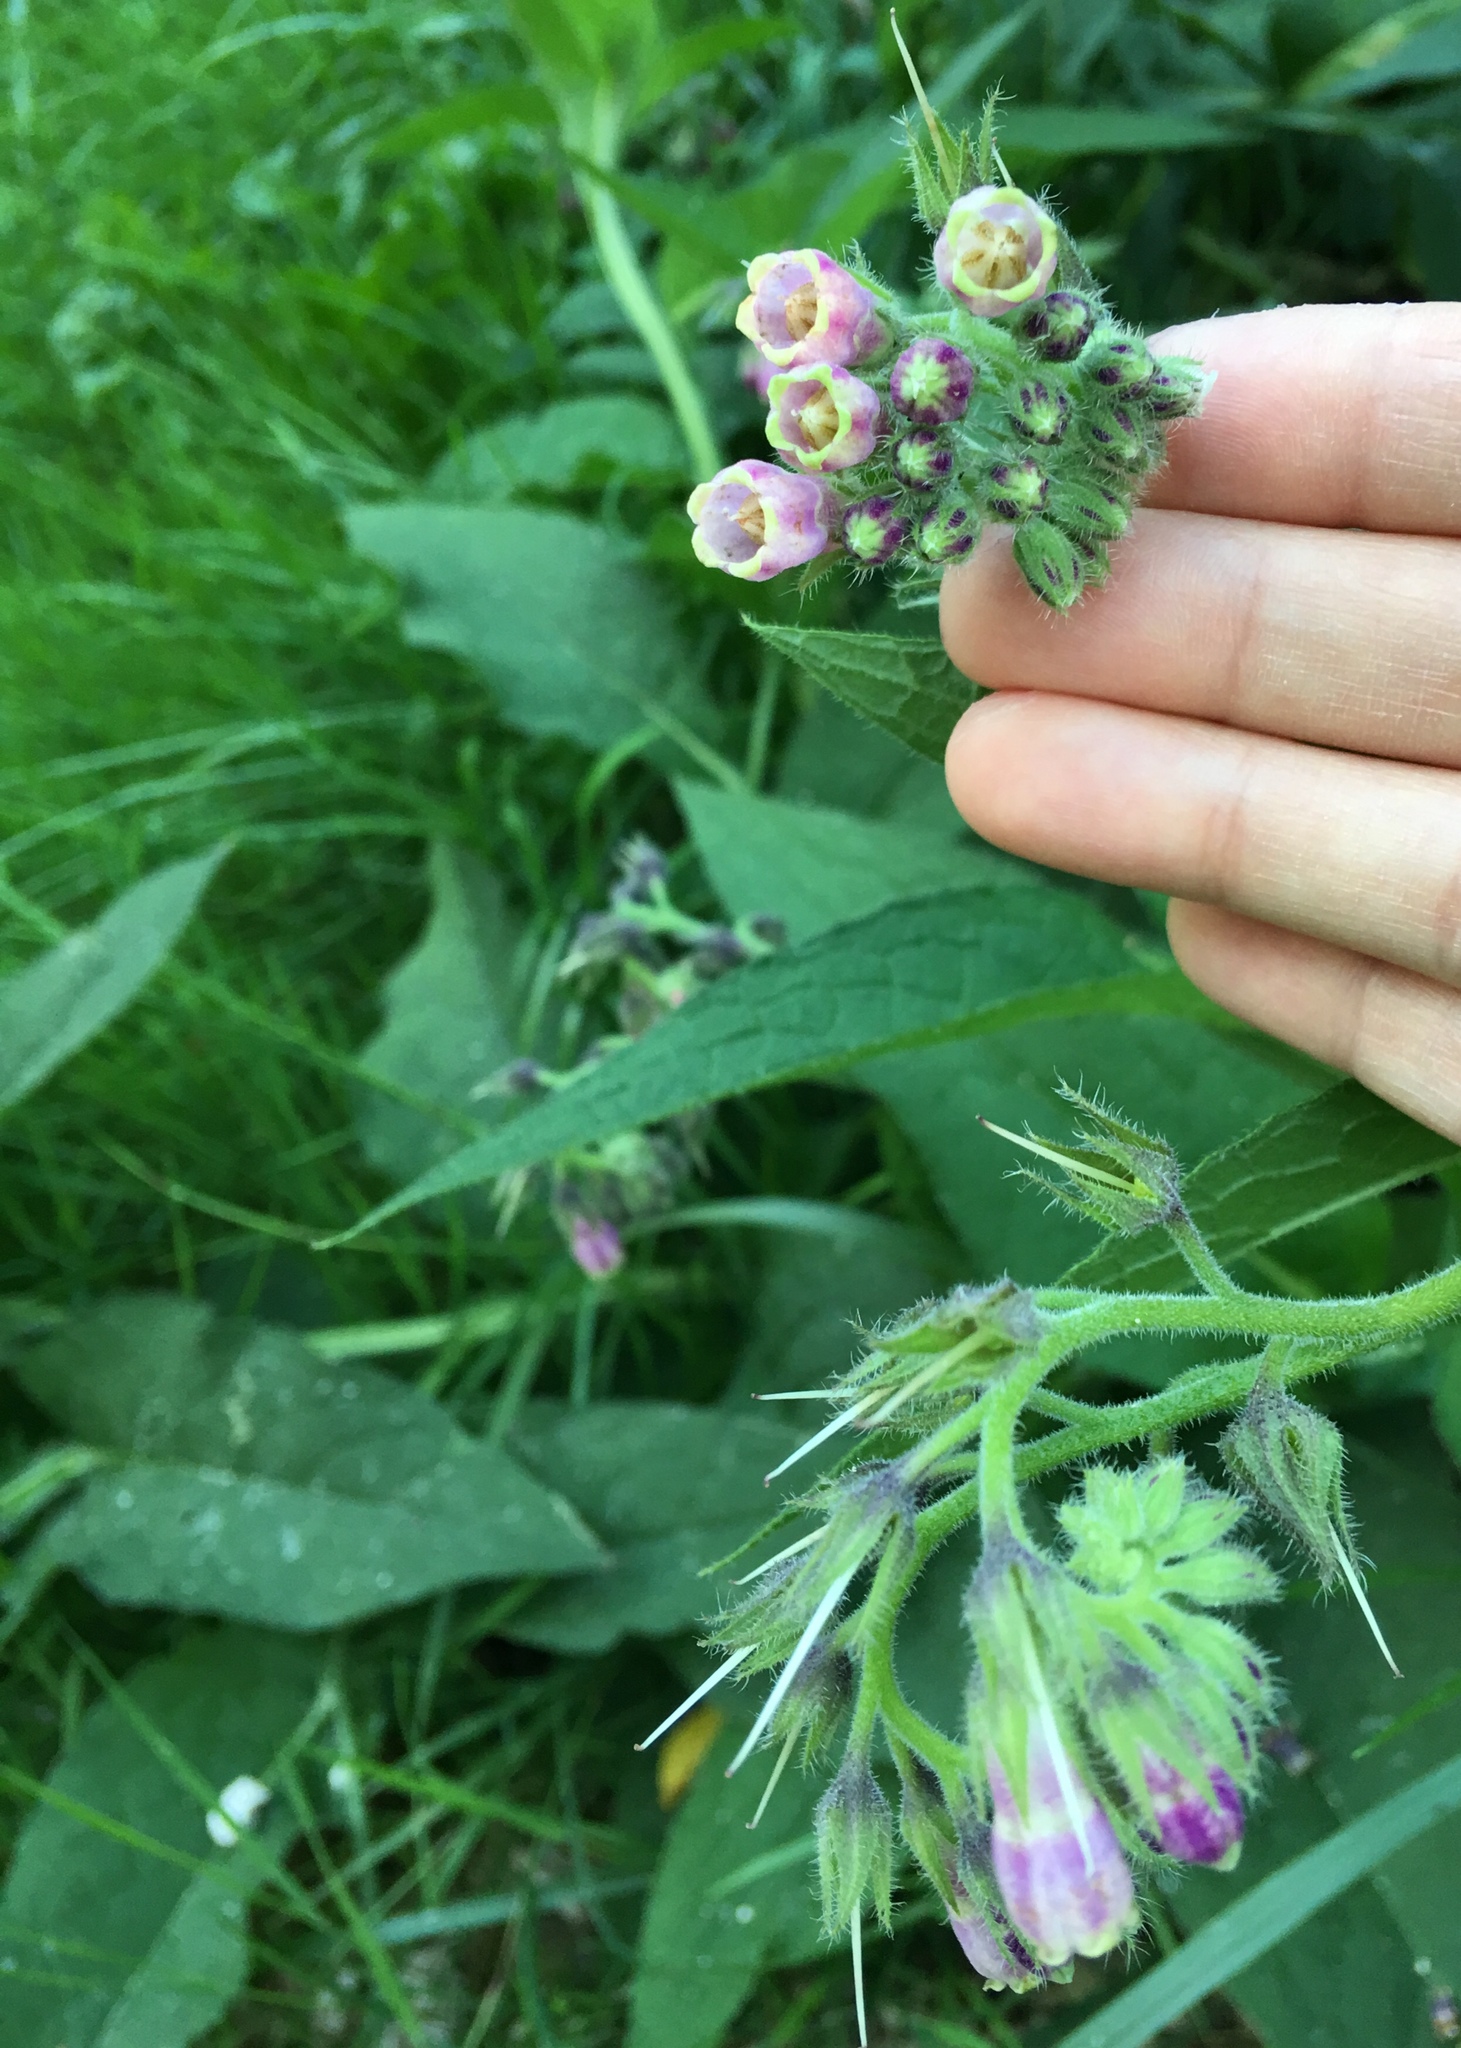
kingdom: Plantae
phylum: Tracheophyta
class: Magnoliopsida
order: Boraginales
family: Boraginaceae
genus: Symphytum
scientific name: Symphytum officinale
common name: Common comfrey
